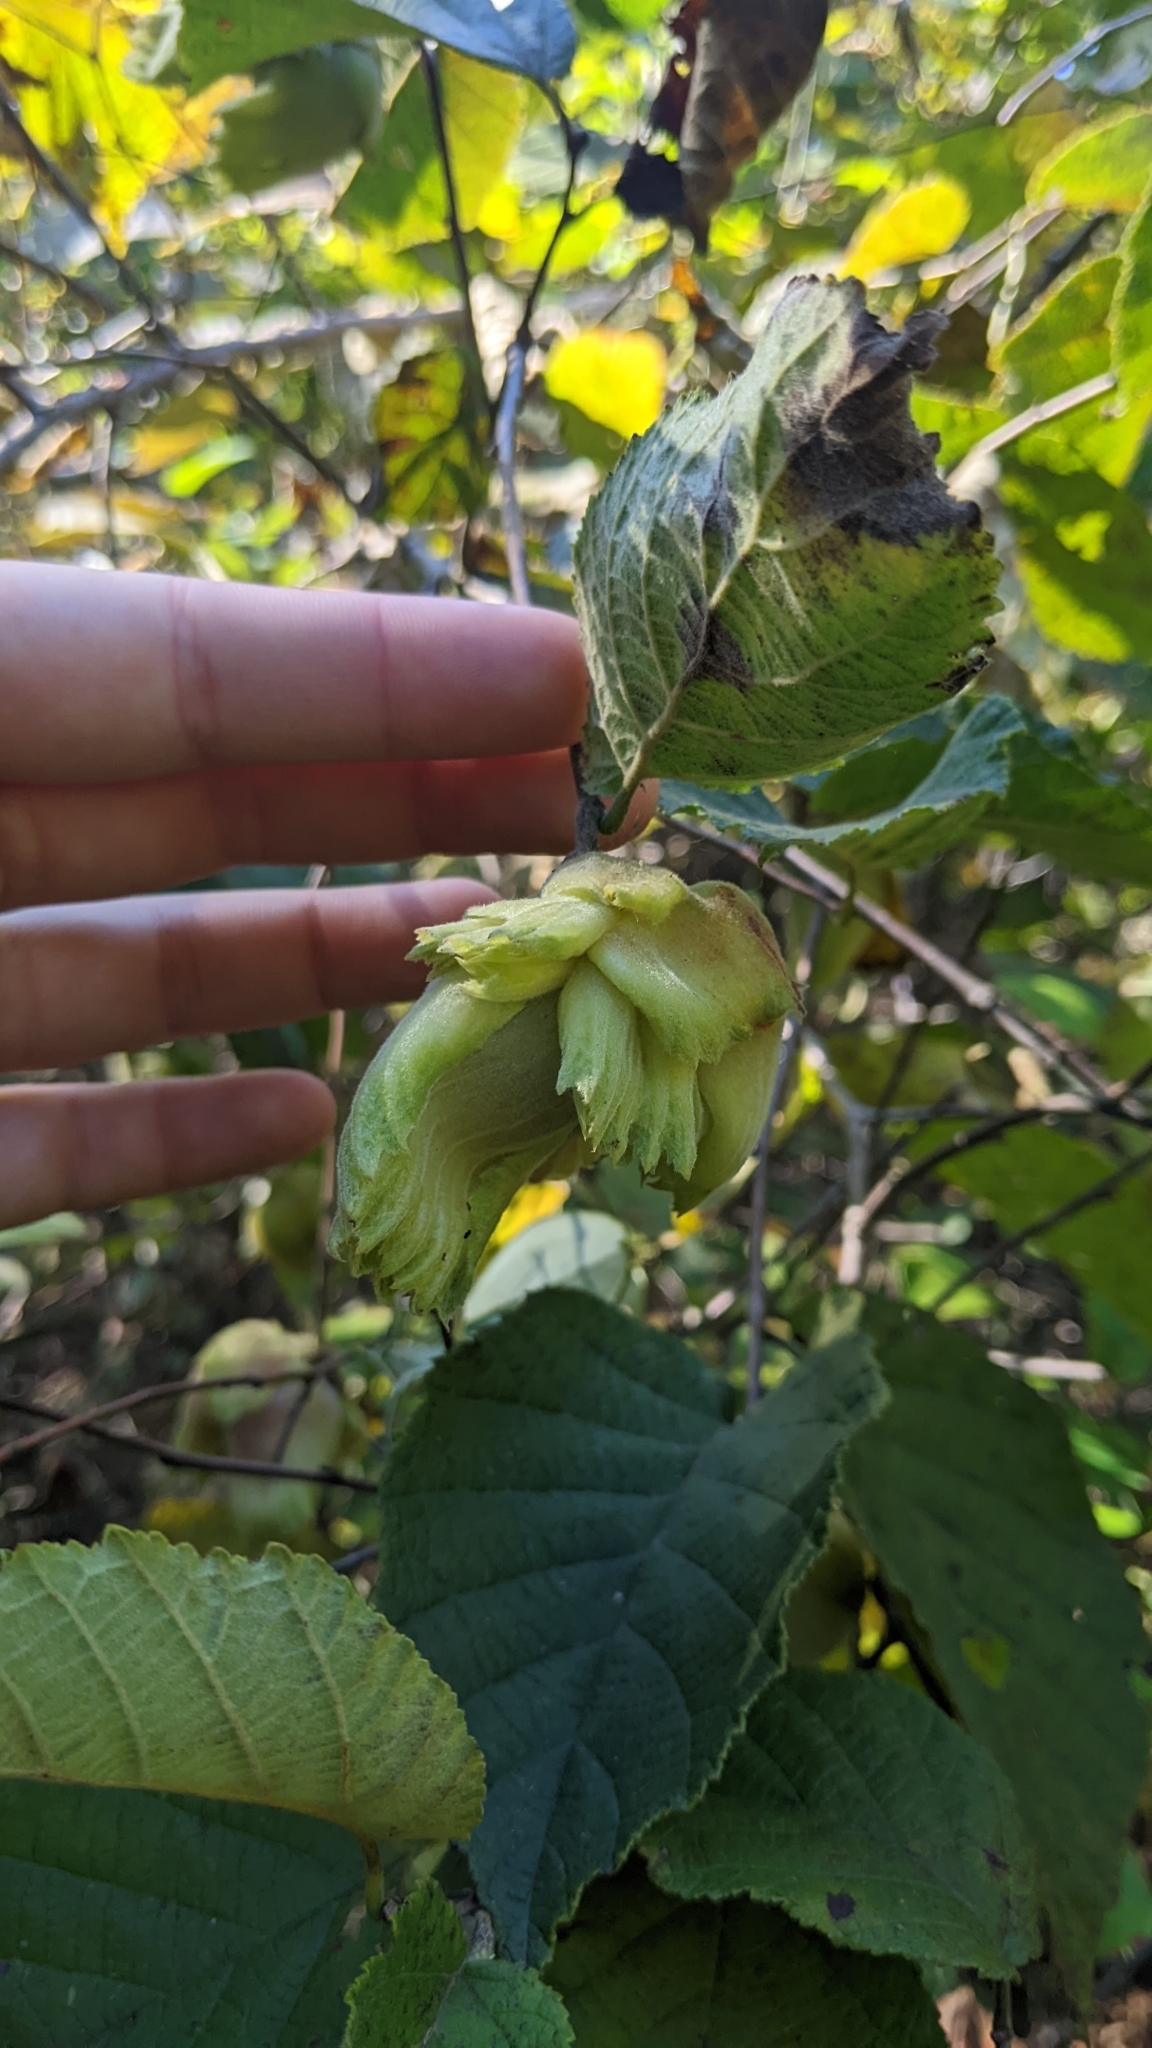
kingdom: Plantae
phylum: Tracheophyta
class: Magnoliopsida
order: Fagales
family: Betulaceae
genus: Corylus
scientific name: Corylus americana
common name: American hazel
